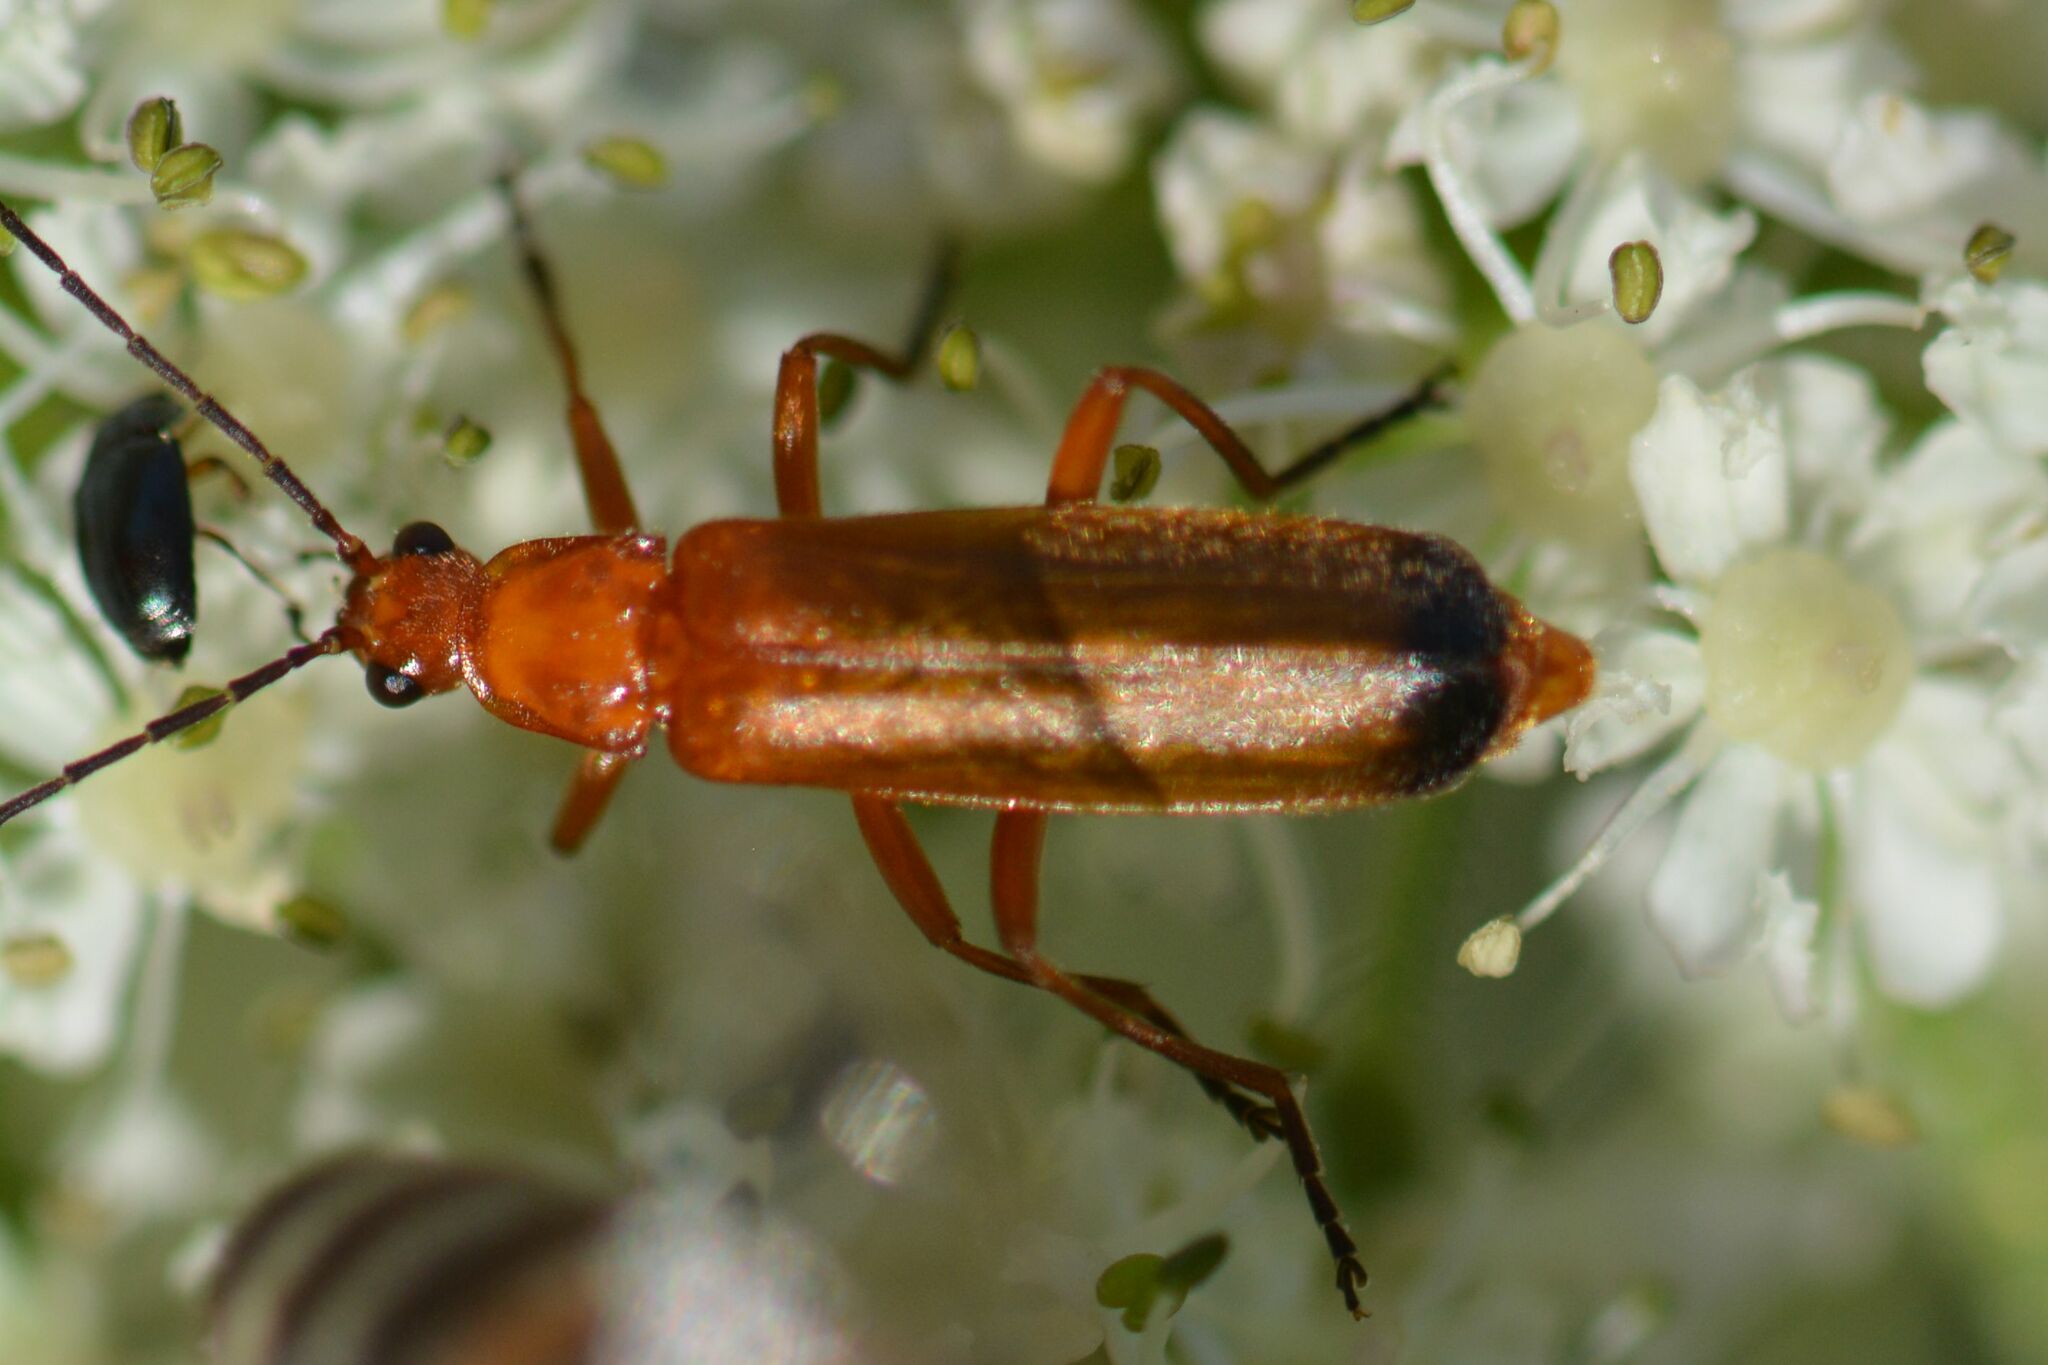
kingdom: Animalia
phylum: Arthropoda
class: Insecta
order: Coleoptera
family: Cantharidae
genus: Rhagonycha
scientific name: Rhagonycha fulva
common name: Common red soldier beetle
